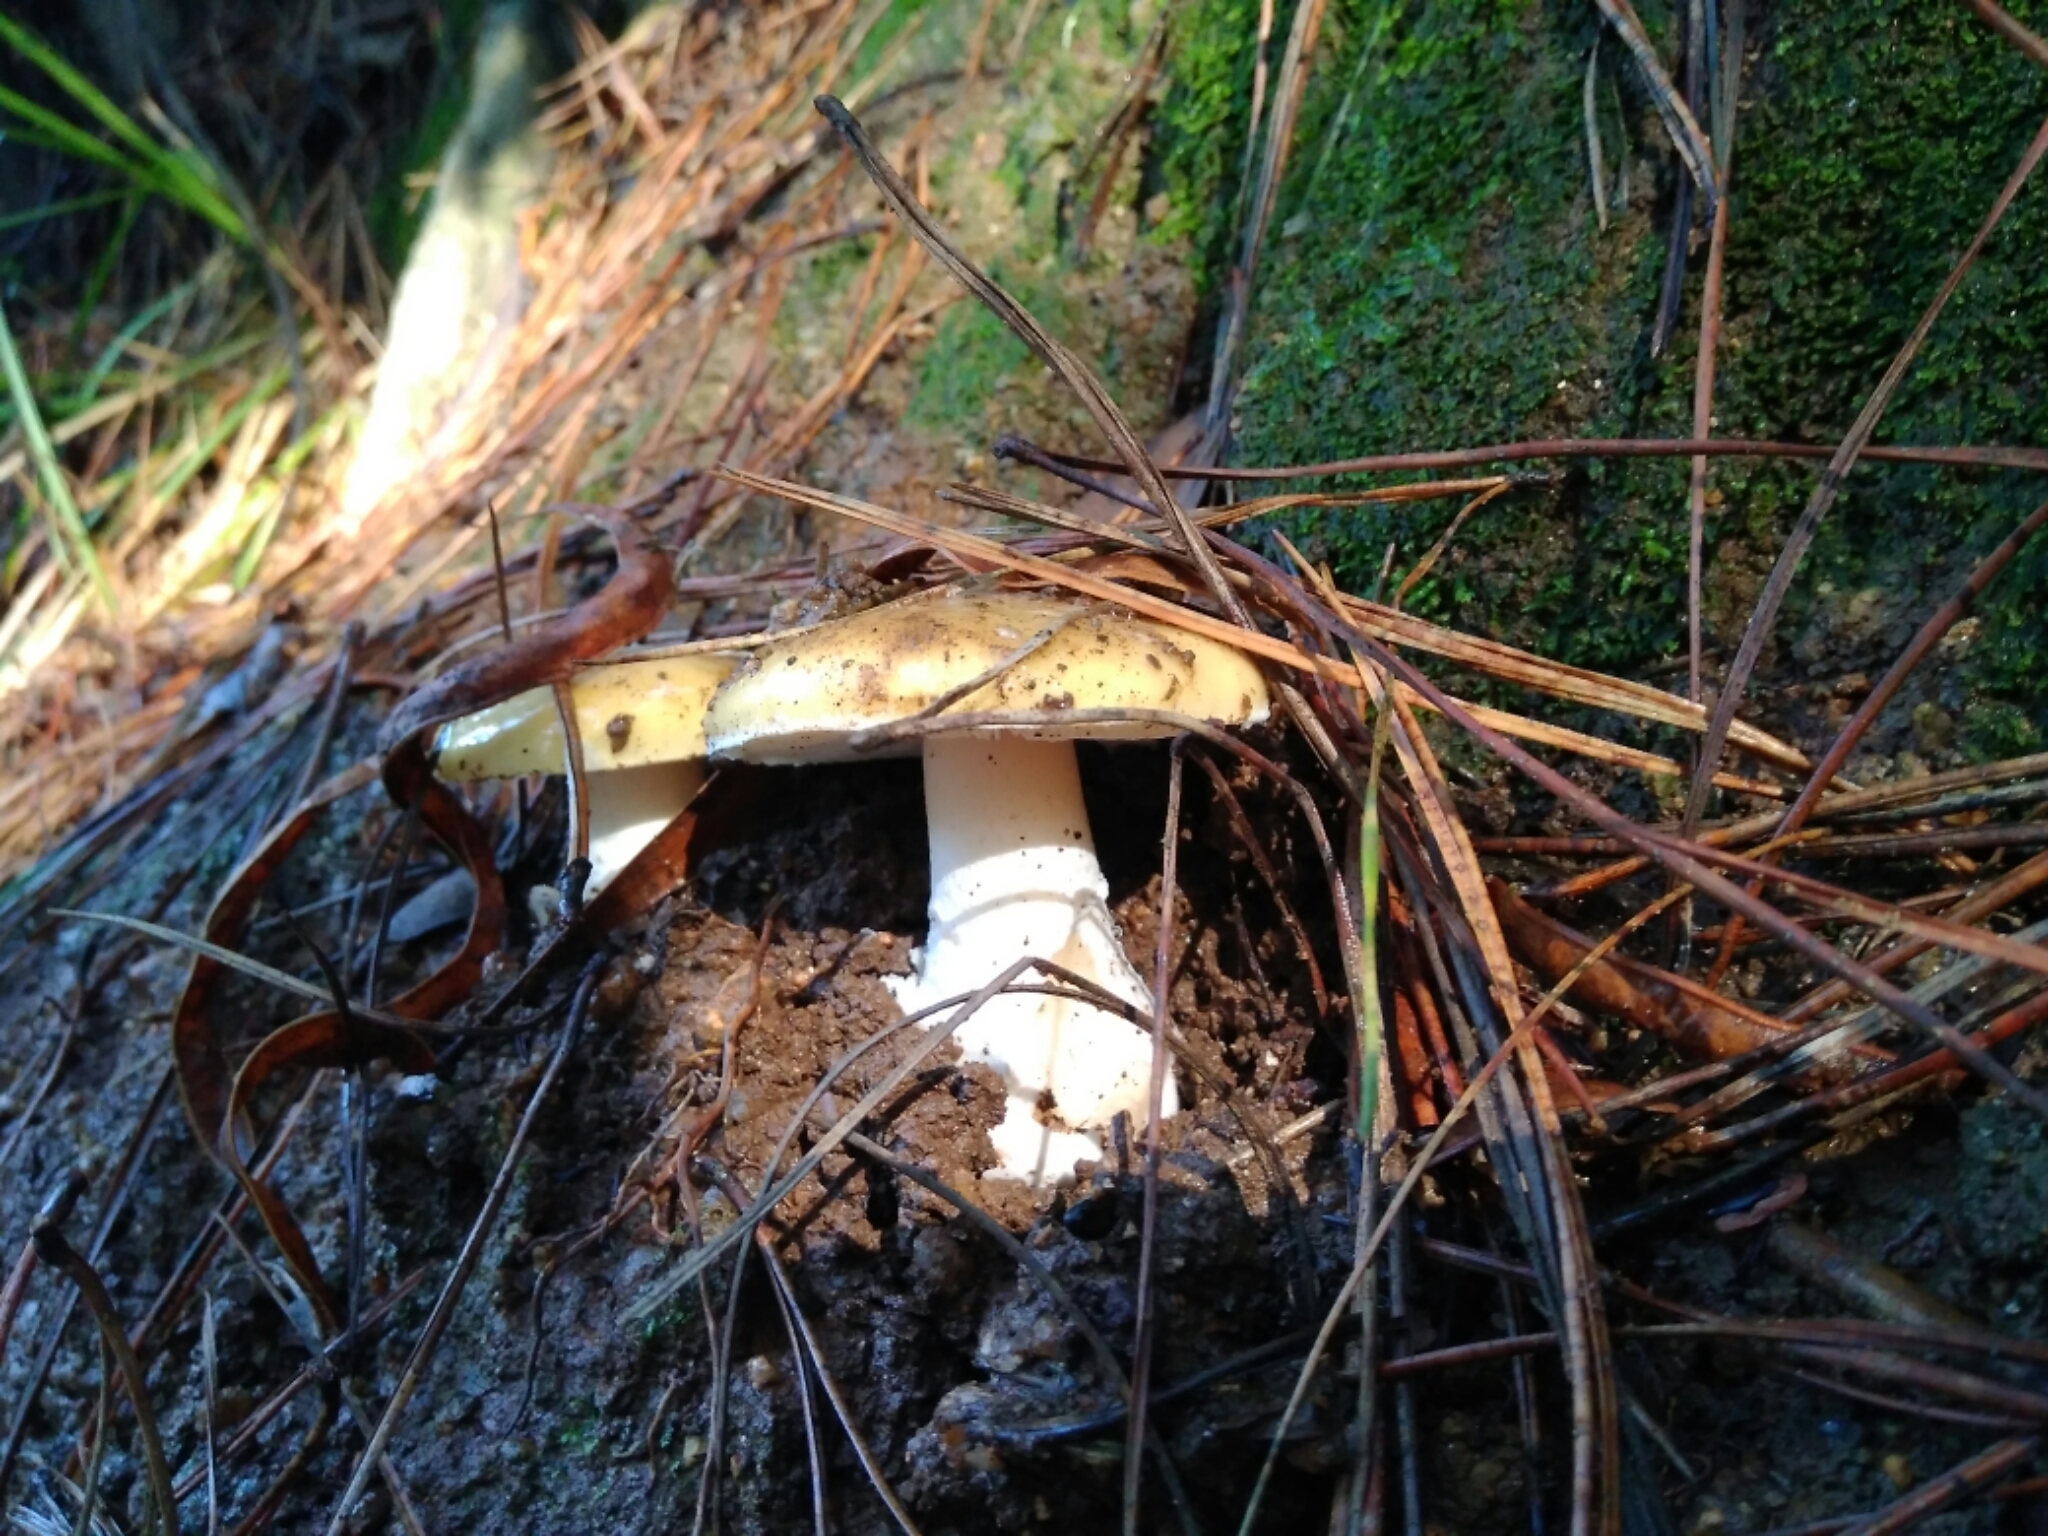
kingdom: Fungi
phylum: Basidiomycota
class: Agaricomycetes
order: Agaricales
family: Amanitaceae
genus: Amanita
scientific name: Amanita toxica
